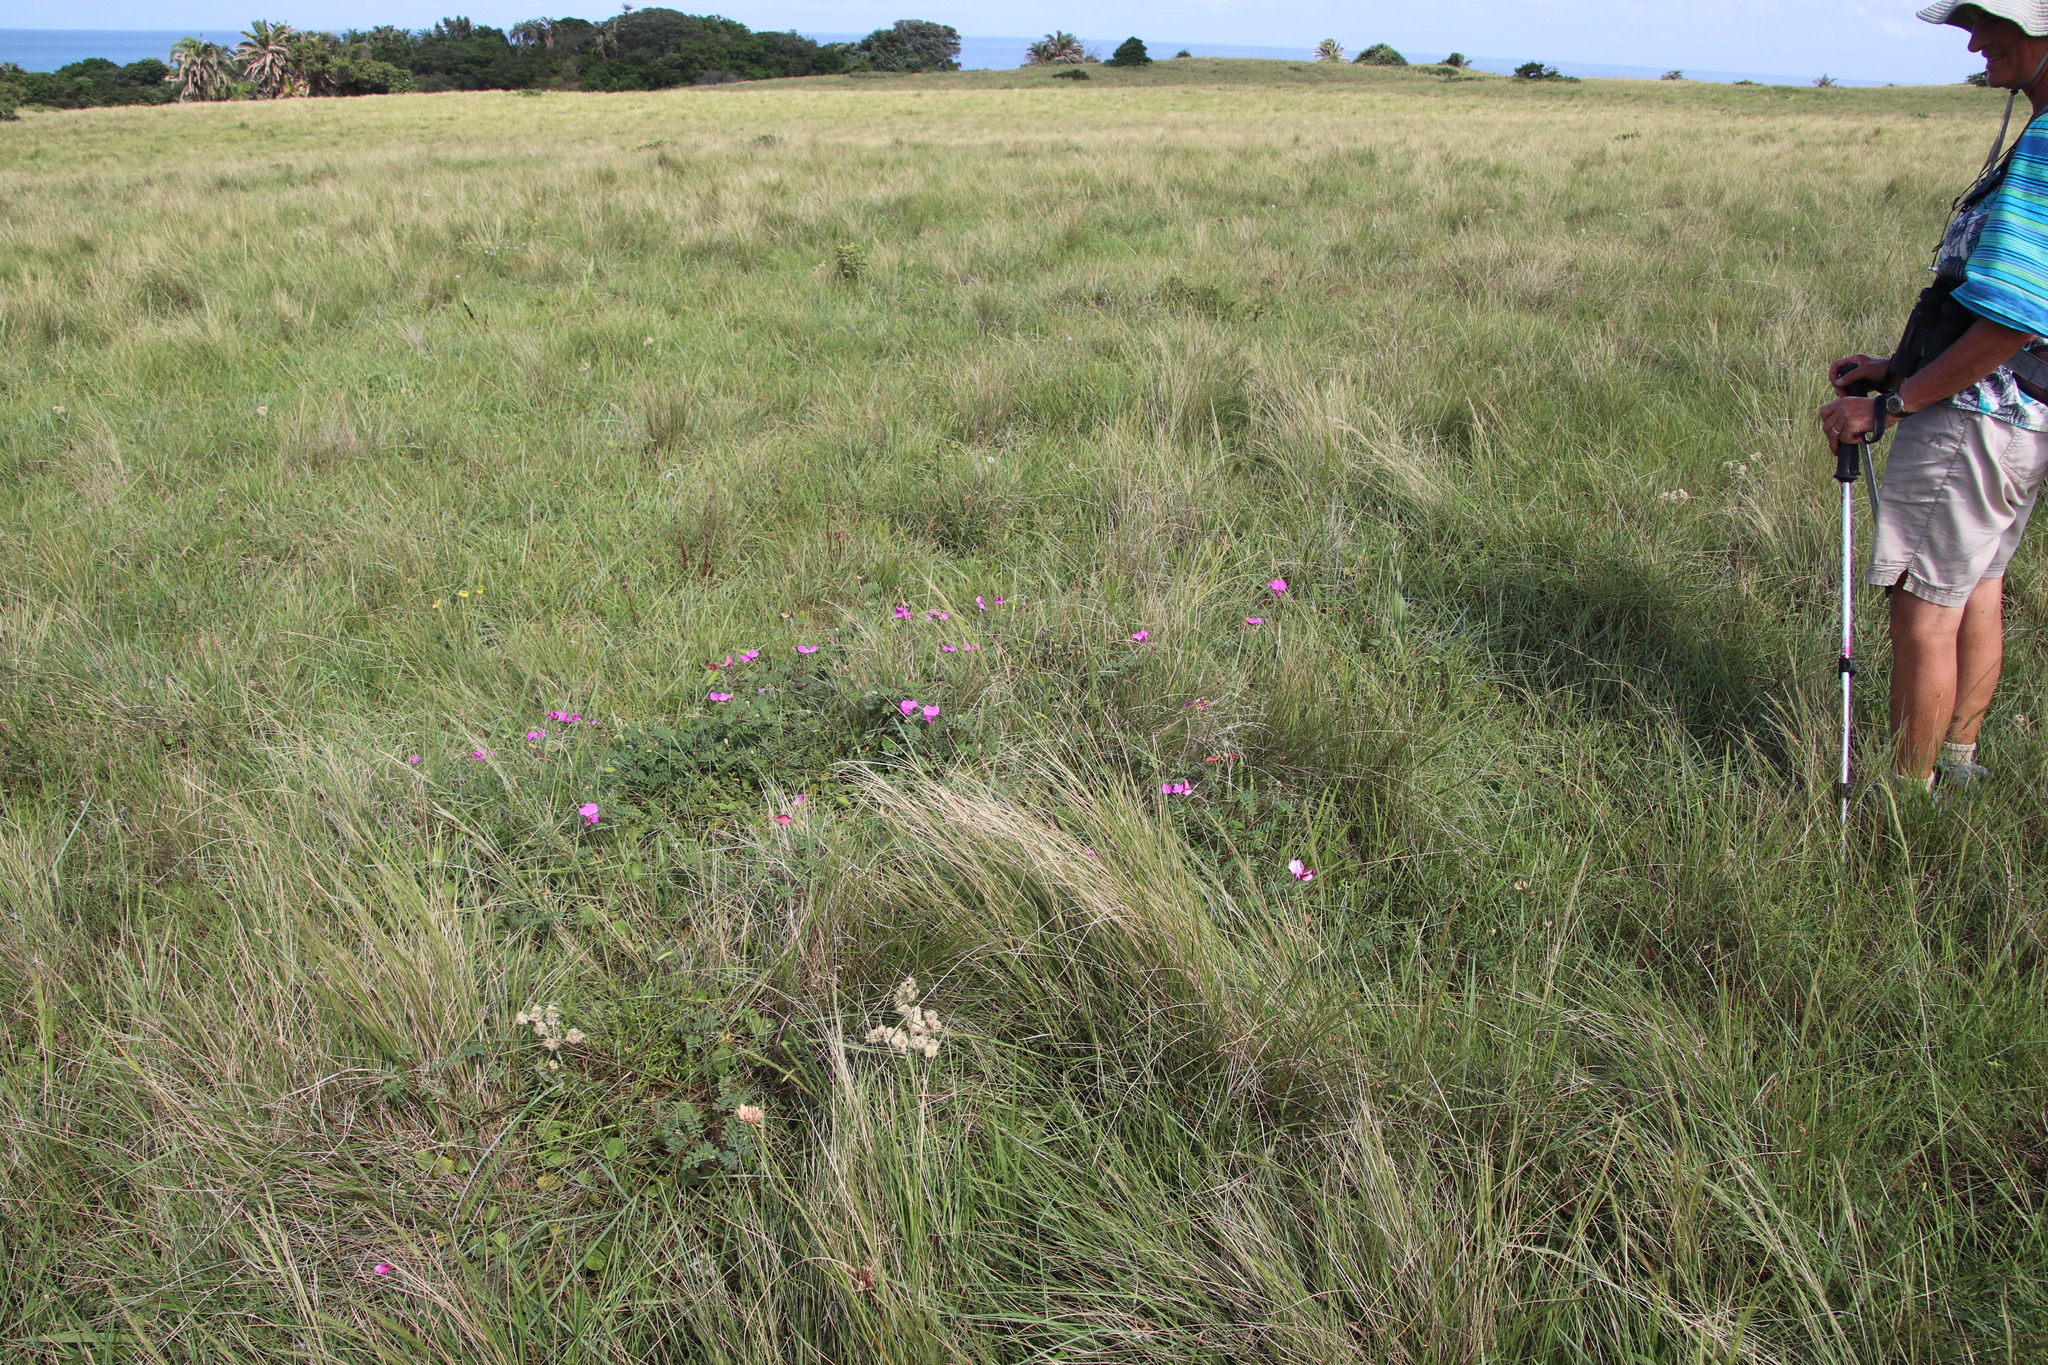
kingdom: Plantae
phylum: Tracheophyta
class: Magnoliopsida
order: Fabales
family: Fabaceae
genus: Tephrosia
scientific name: Tephrosia grandiflora
